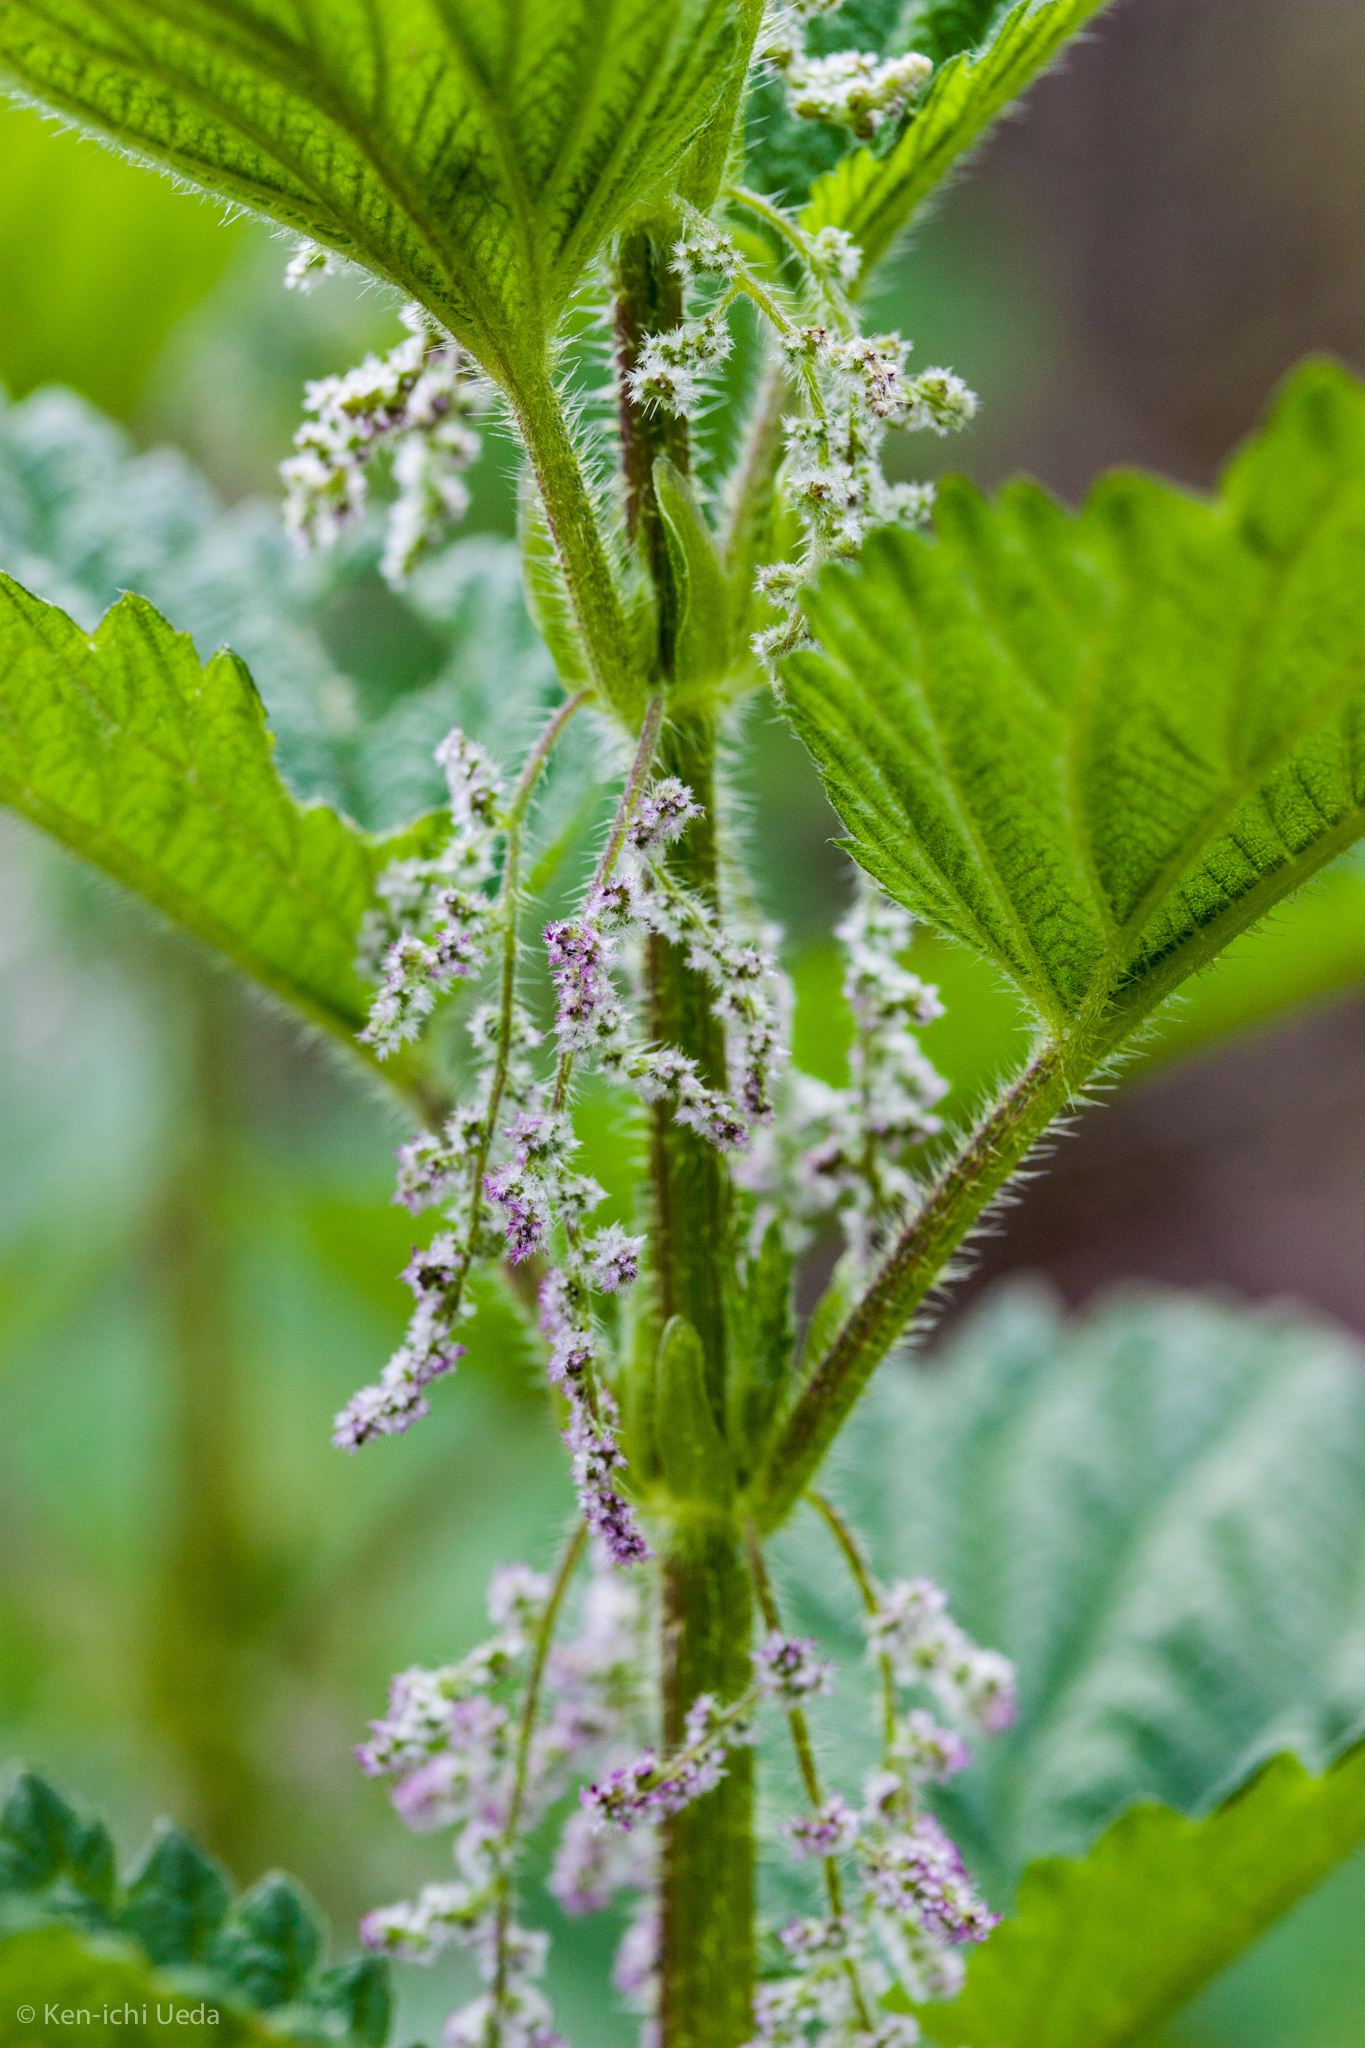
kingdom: Plantae
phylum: Tracheophyta
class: Magnoliopsida
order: Rosales
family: Urticaceae
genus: Urtica
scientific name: Urtica dioica
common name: Common nettle
